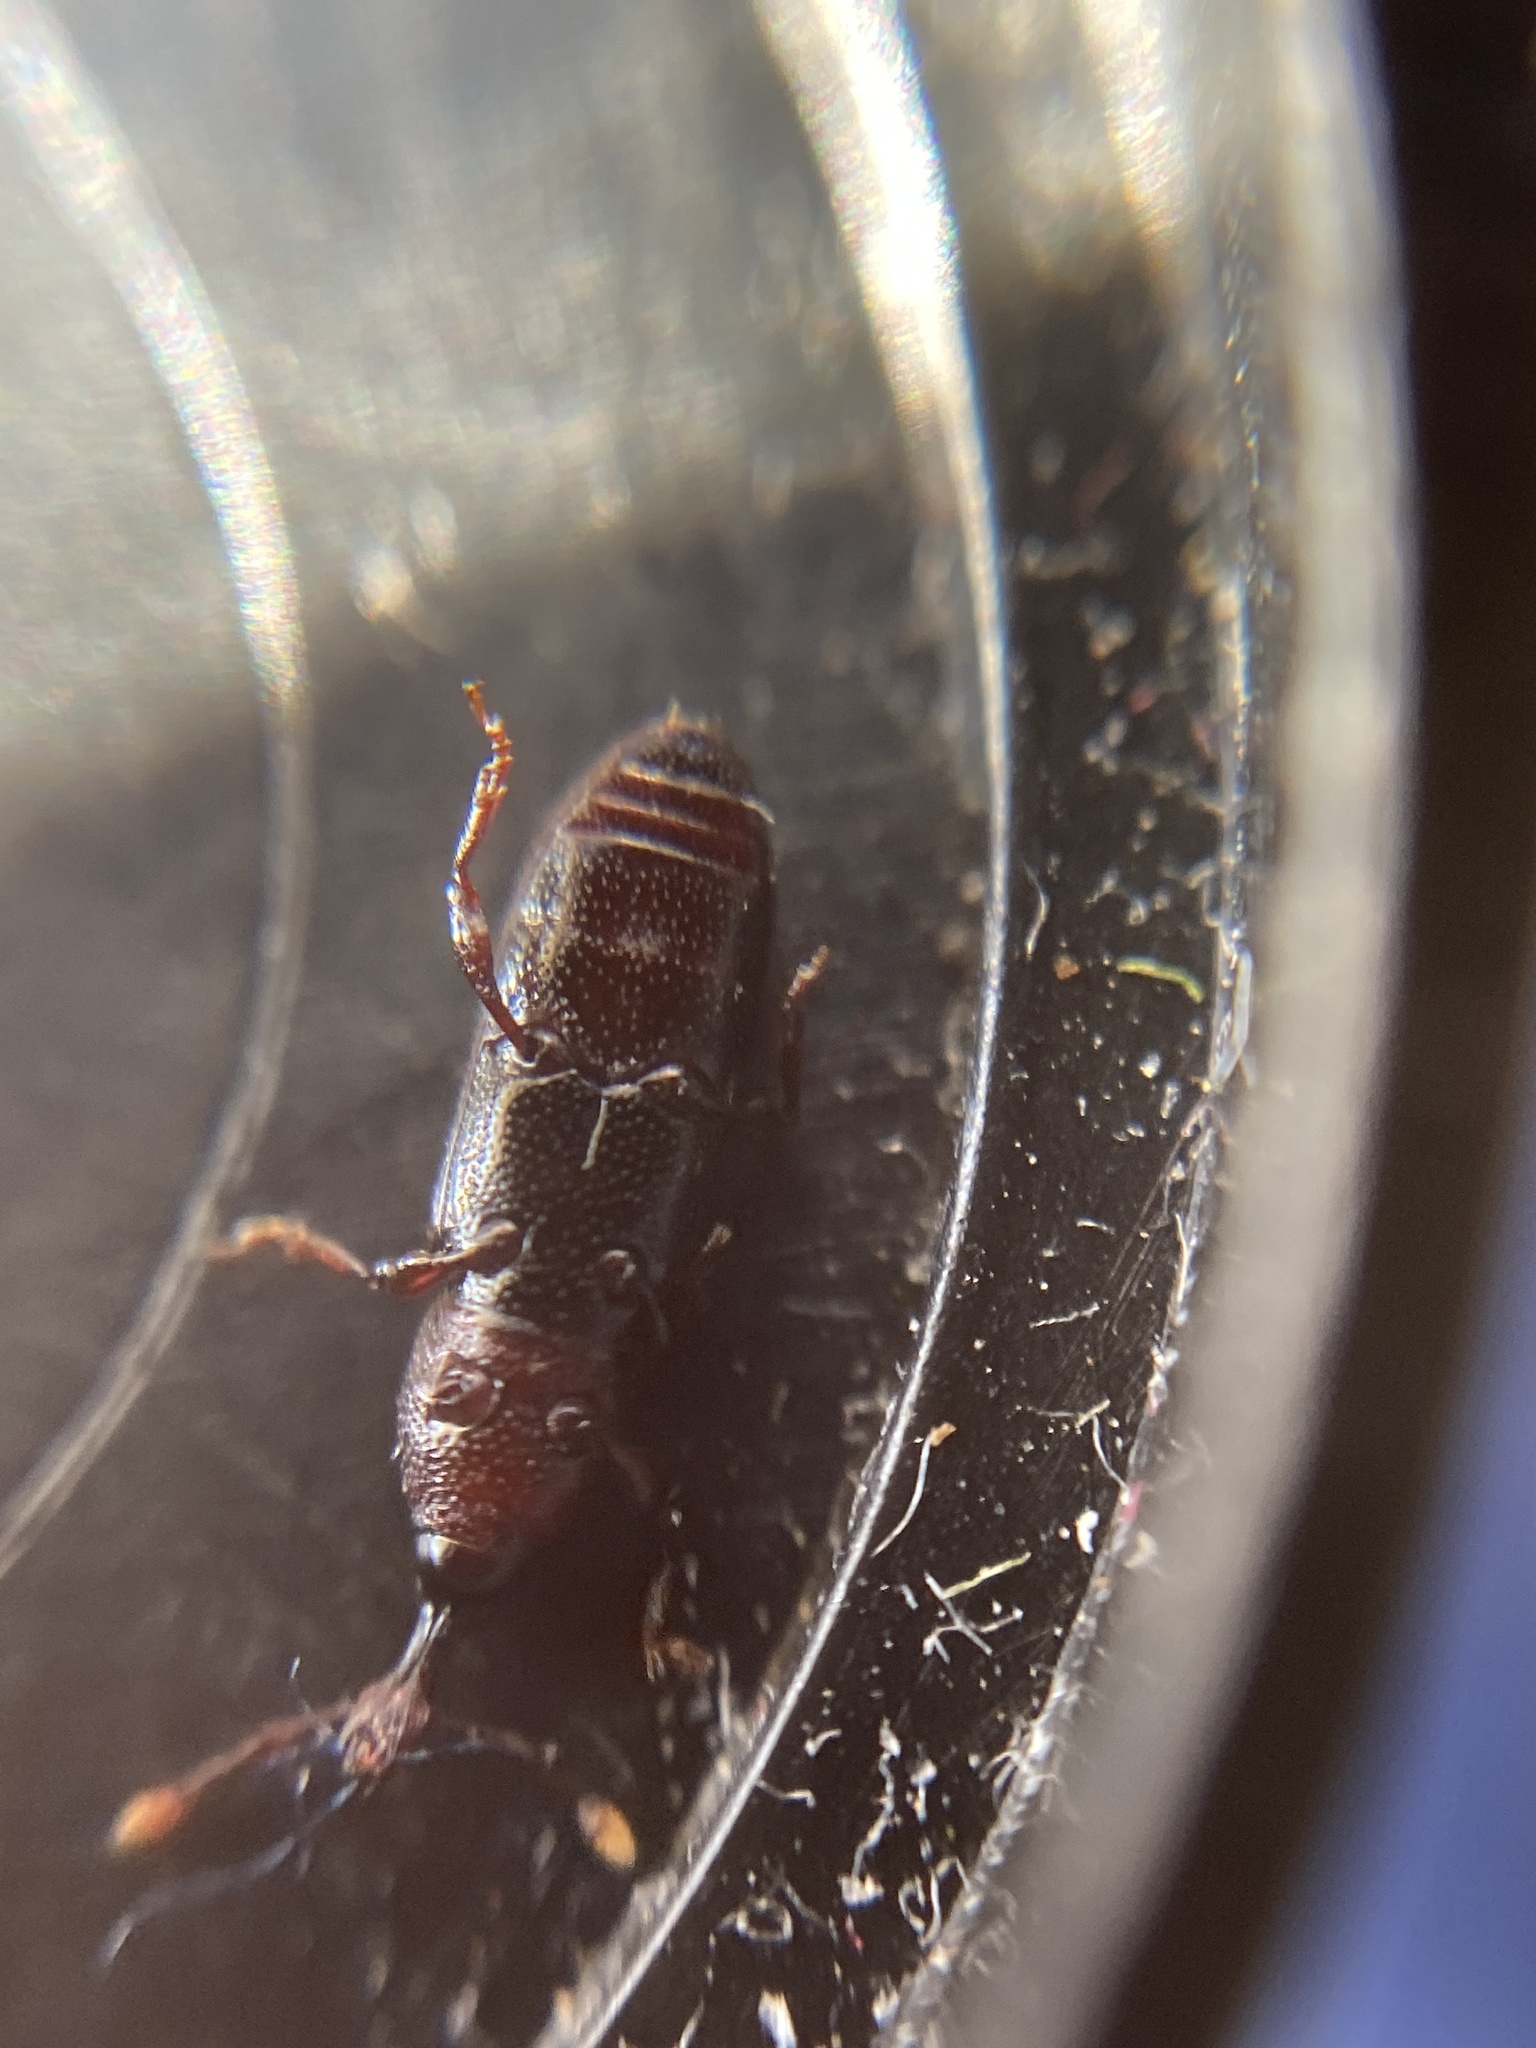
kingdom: Animalia
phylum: Arthropoda
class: Insecta
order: Coleoptera
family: Curculionidae
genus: Cossonus
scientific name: Cossonus linearis
